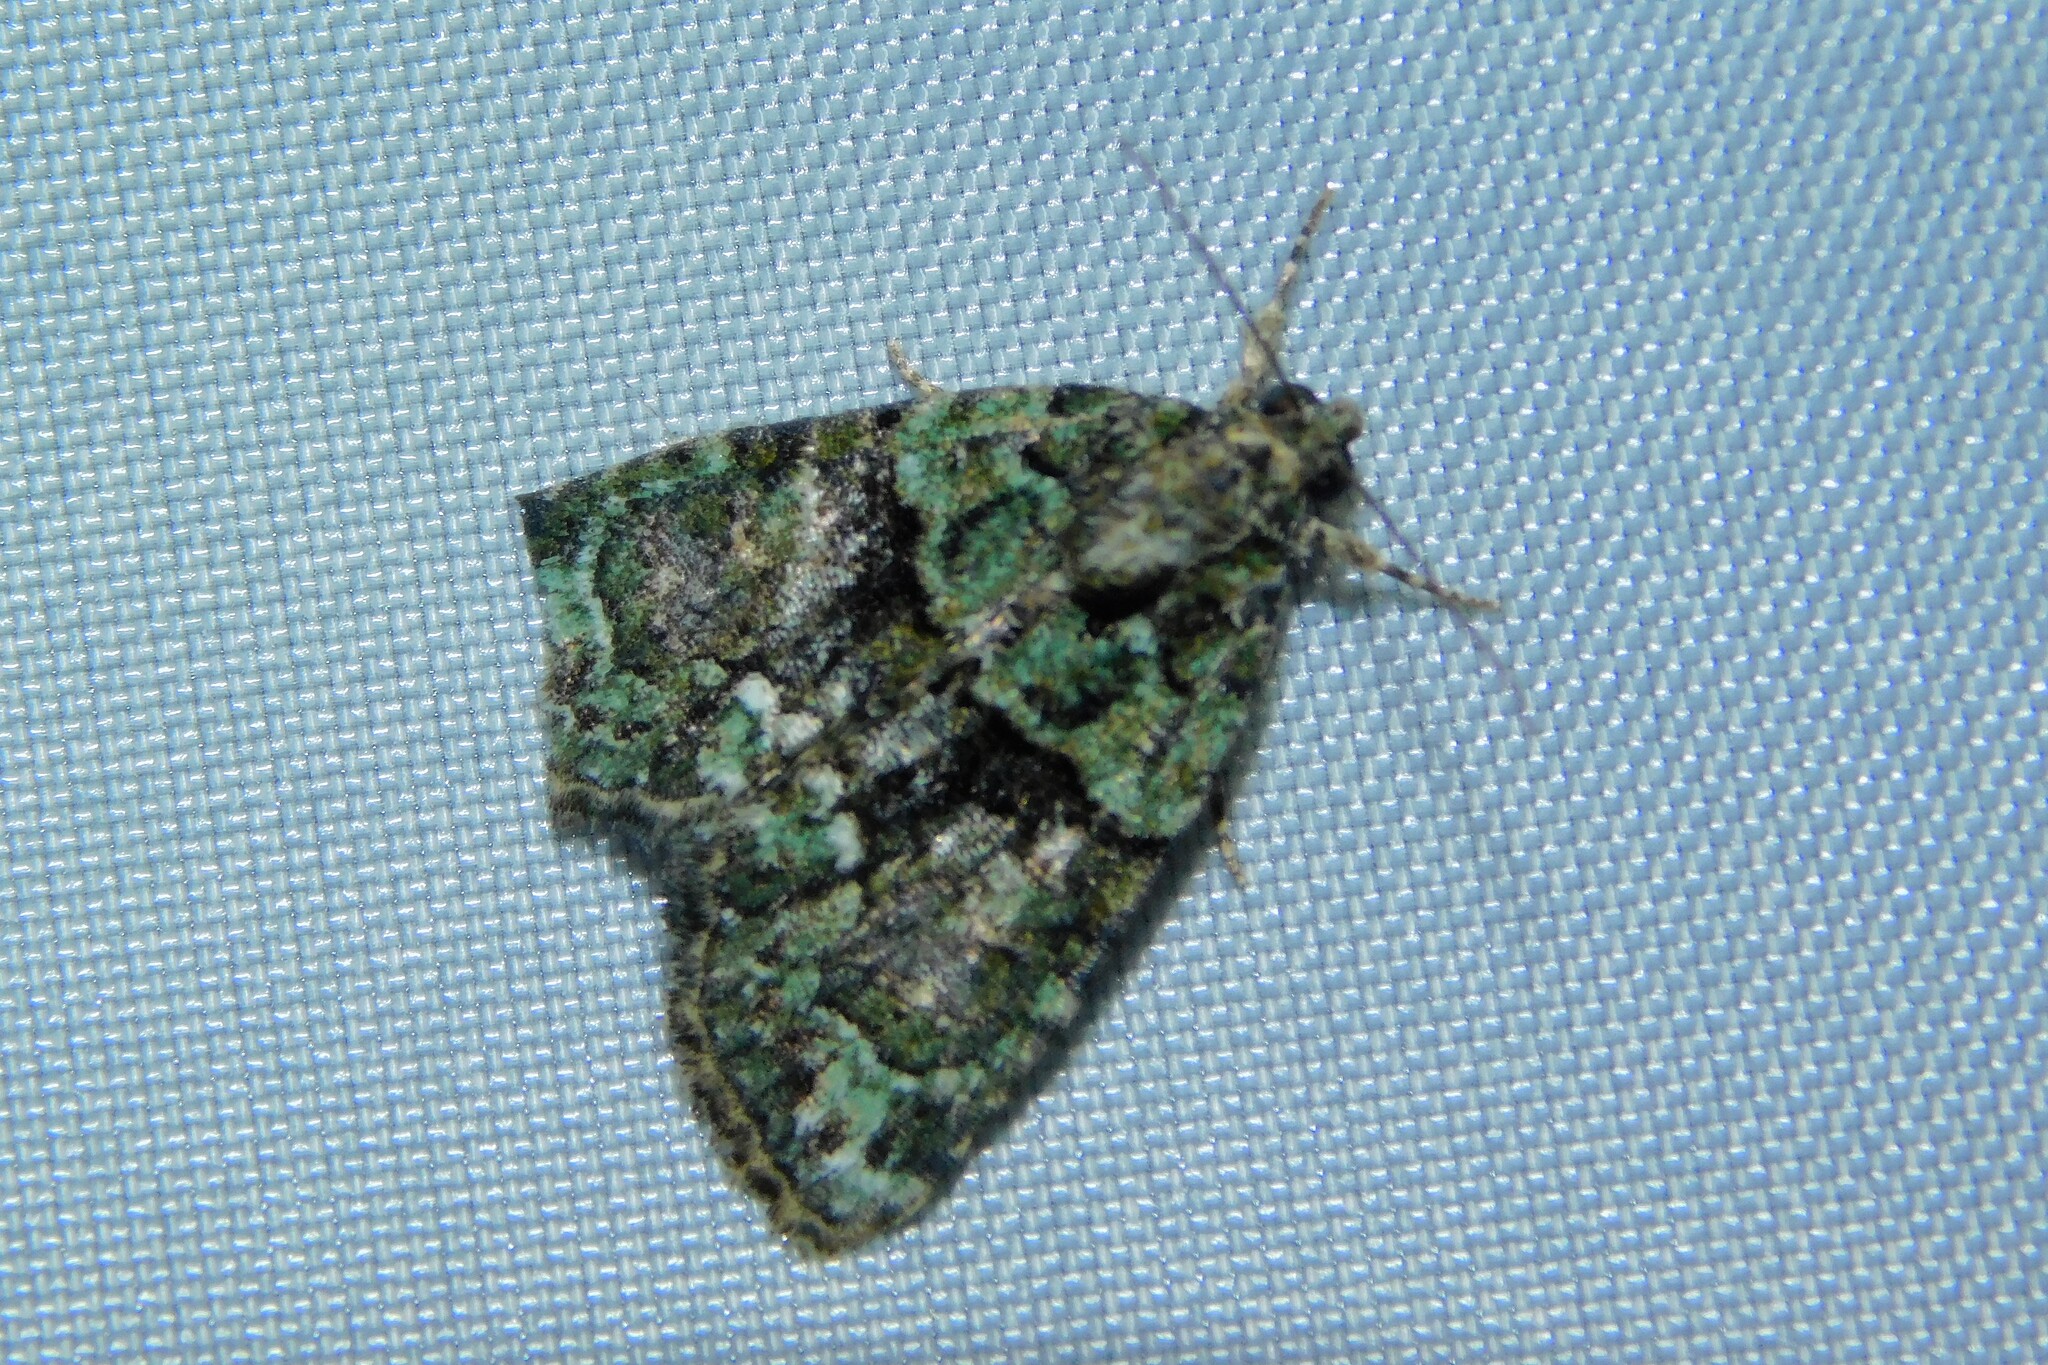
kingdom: Animalia
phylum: Arthropoda
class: Insecta
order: Lepidoptera
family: Noctuidae
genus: Cryphia
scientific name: Cryphia algae
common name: Tree-lichen beauty
